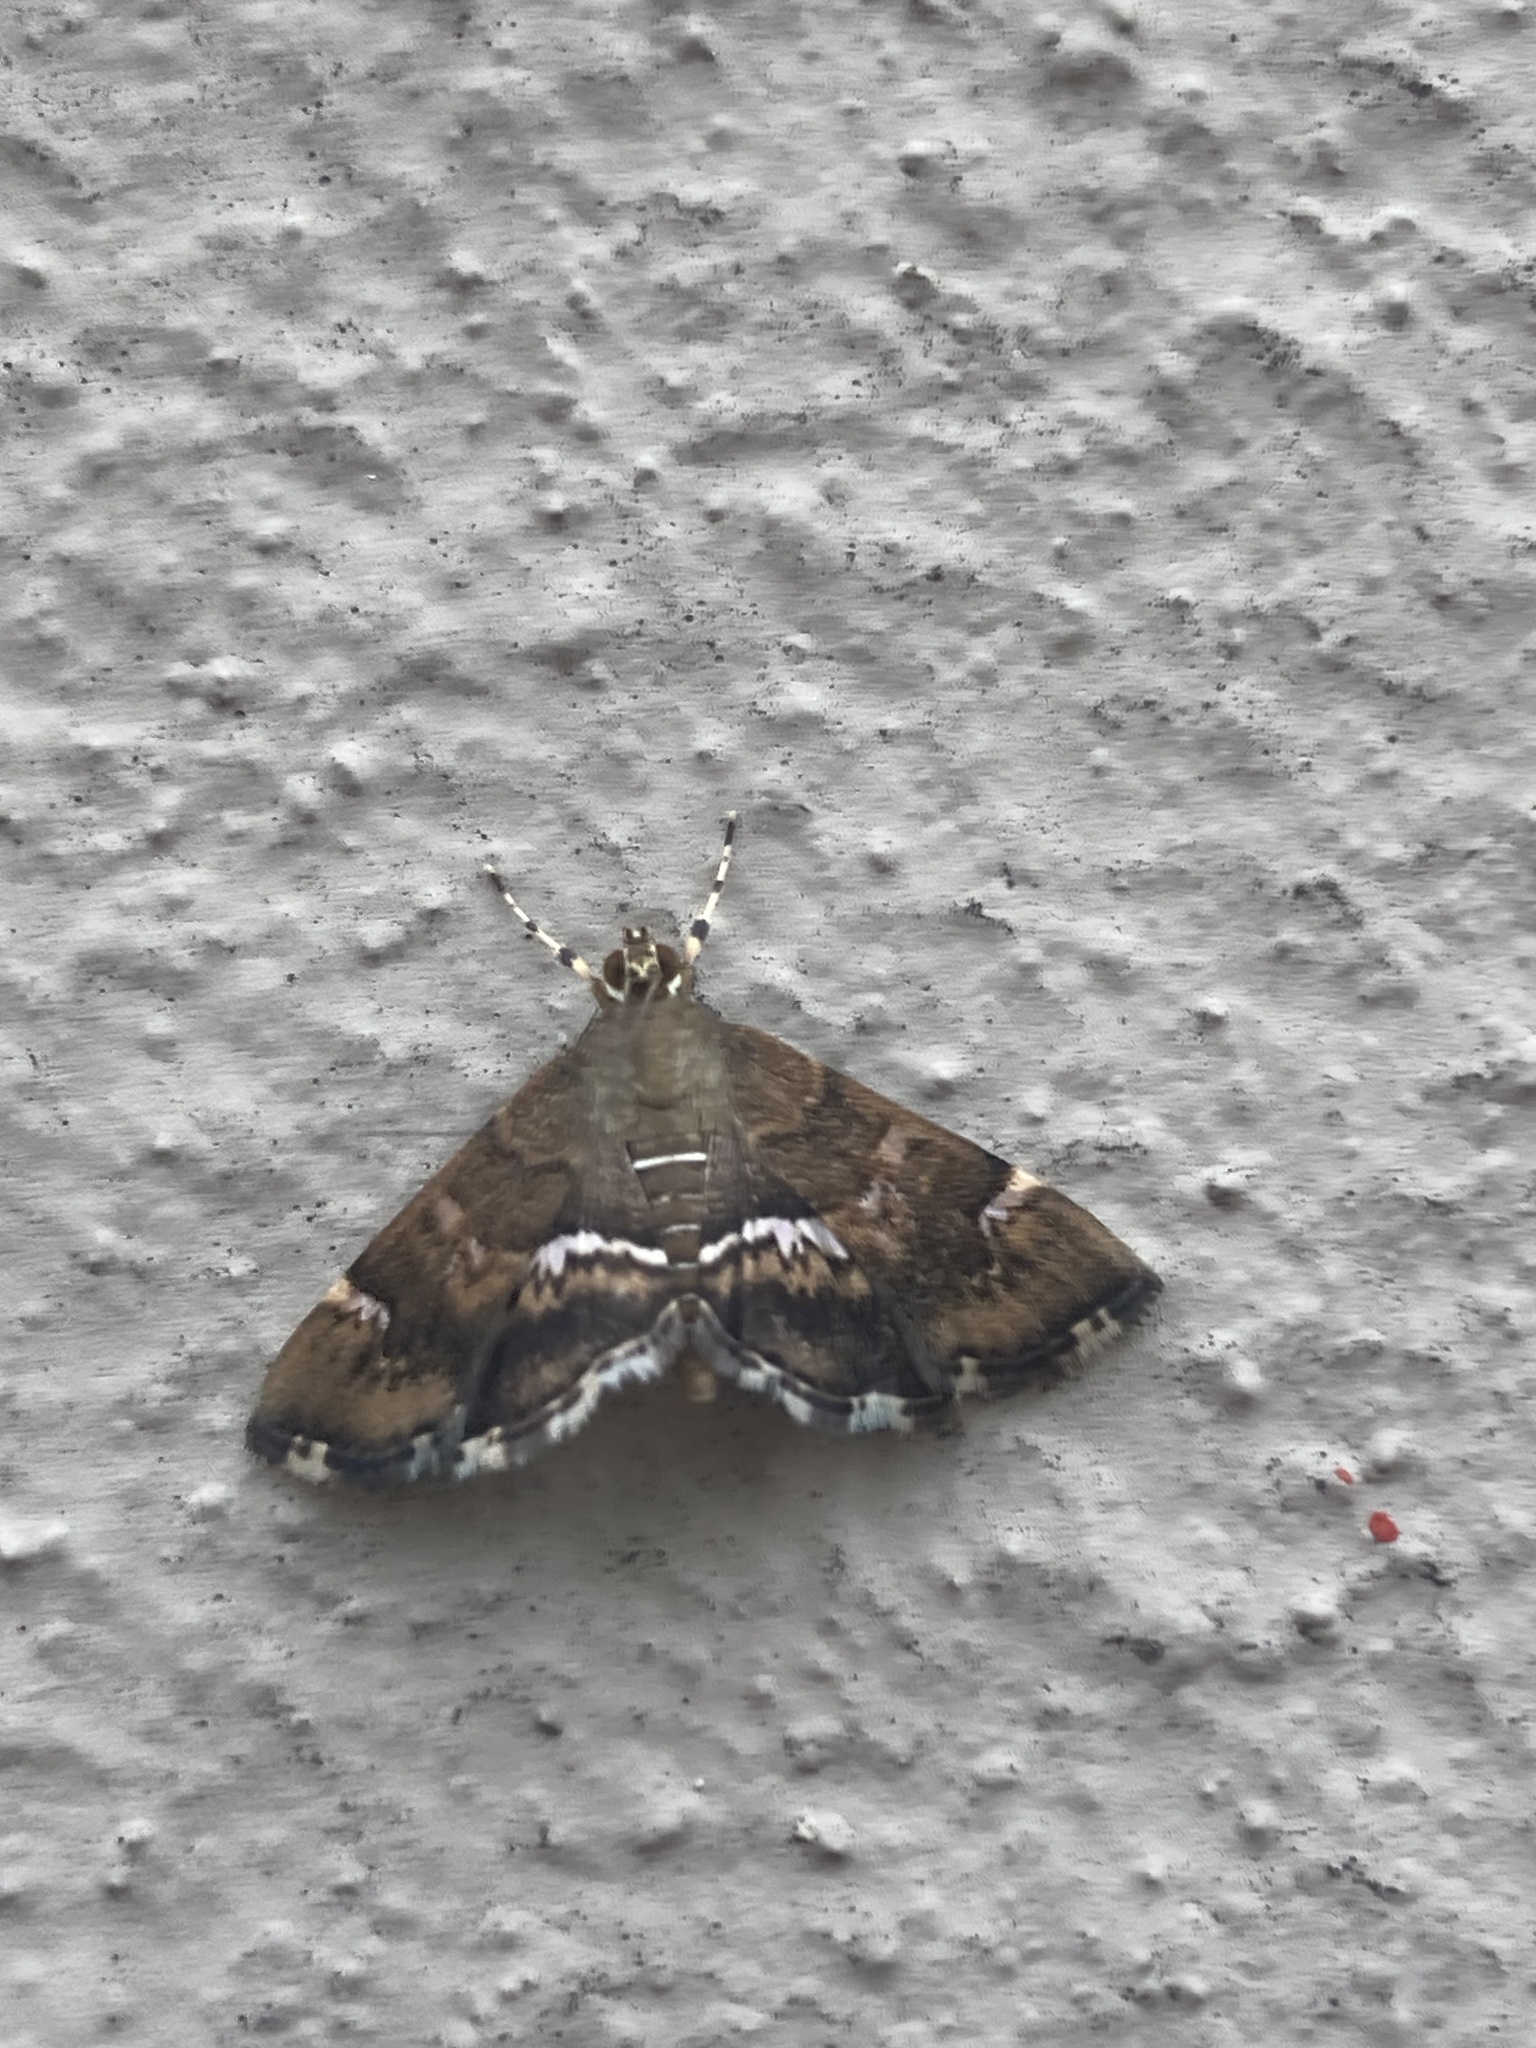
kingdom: Animalia
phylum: Arthropoda
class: Insecta
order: Lepidoptera
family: Crambidae
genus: Hymenia
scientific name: Hymenia perspectalis
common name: Spotted beet webworm
